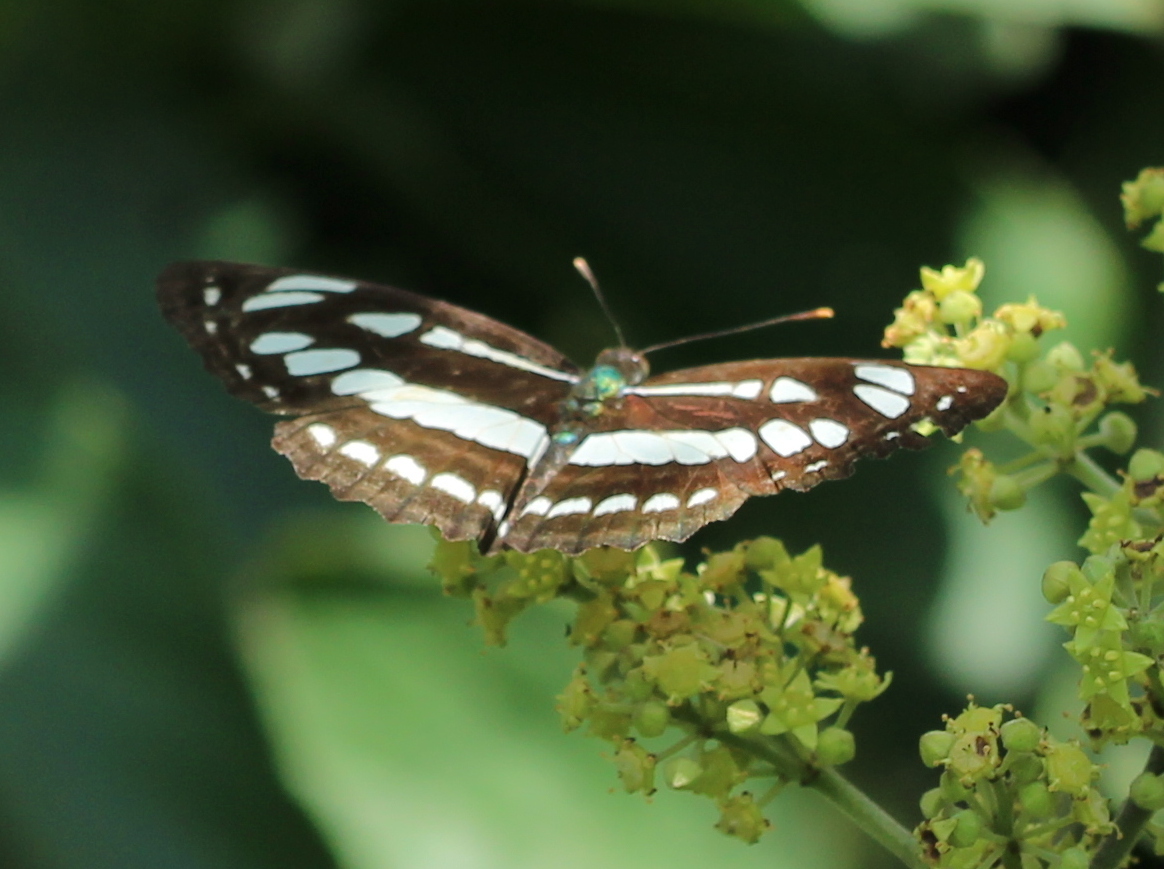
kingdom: Animalia
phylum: Arthropoda
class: Insecta
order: Lepidoptera
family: Nymphalidae
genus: Neptis
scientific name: Neptis hylas
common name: Common sailer
